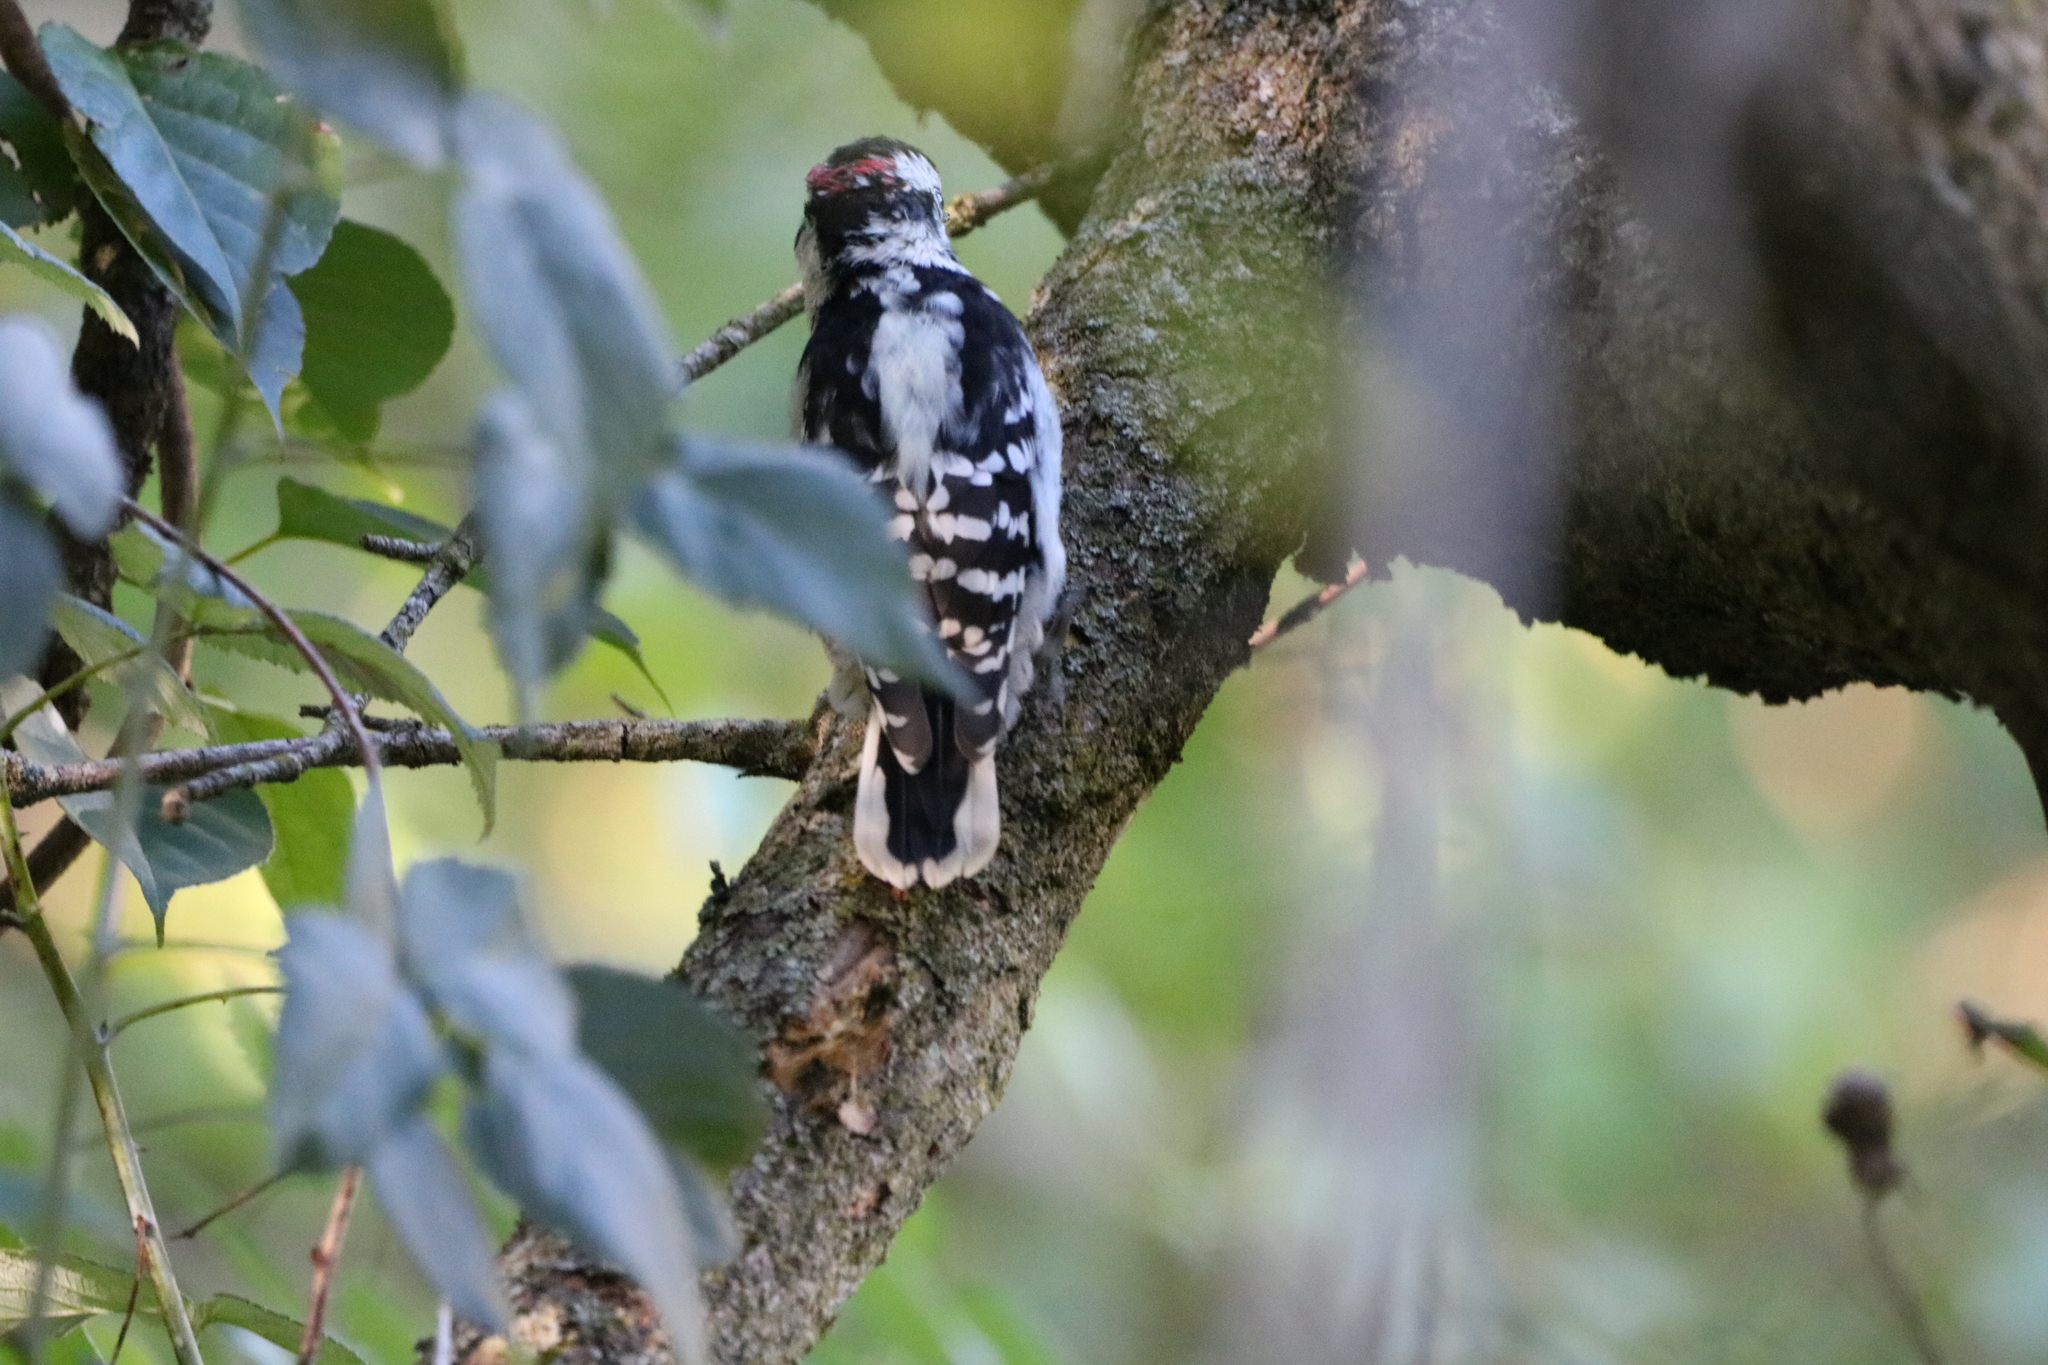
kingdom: Animalia
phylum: Chordata
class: Aves
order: Piciformes
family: Picidae
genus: Dryobates
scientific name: Dryobates pubescens
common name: Downy woodpecker
